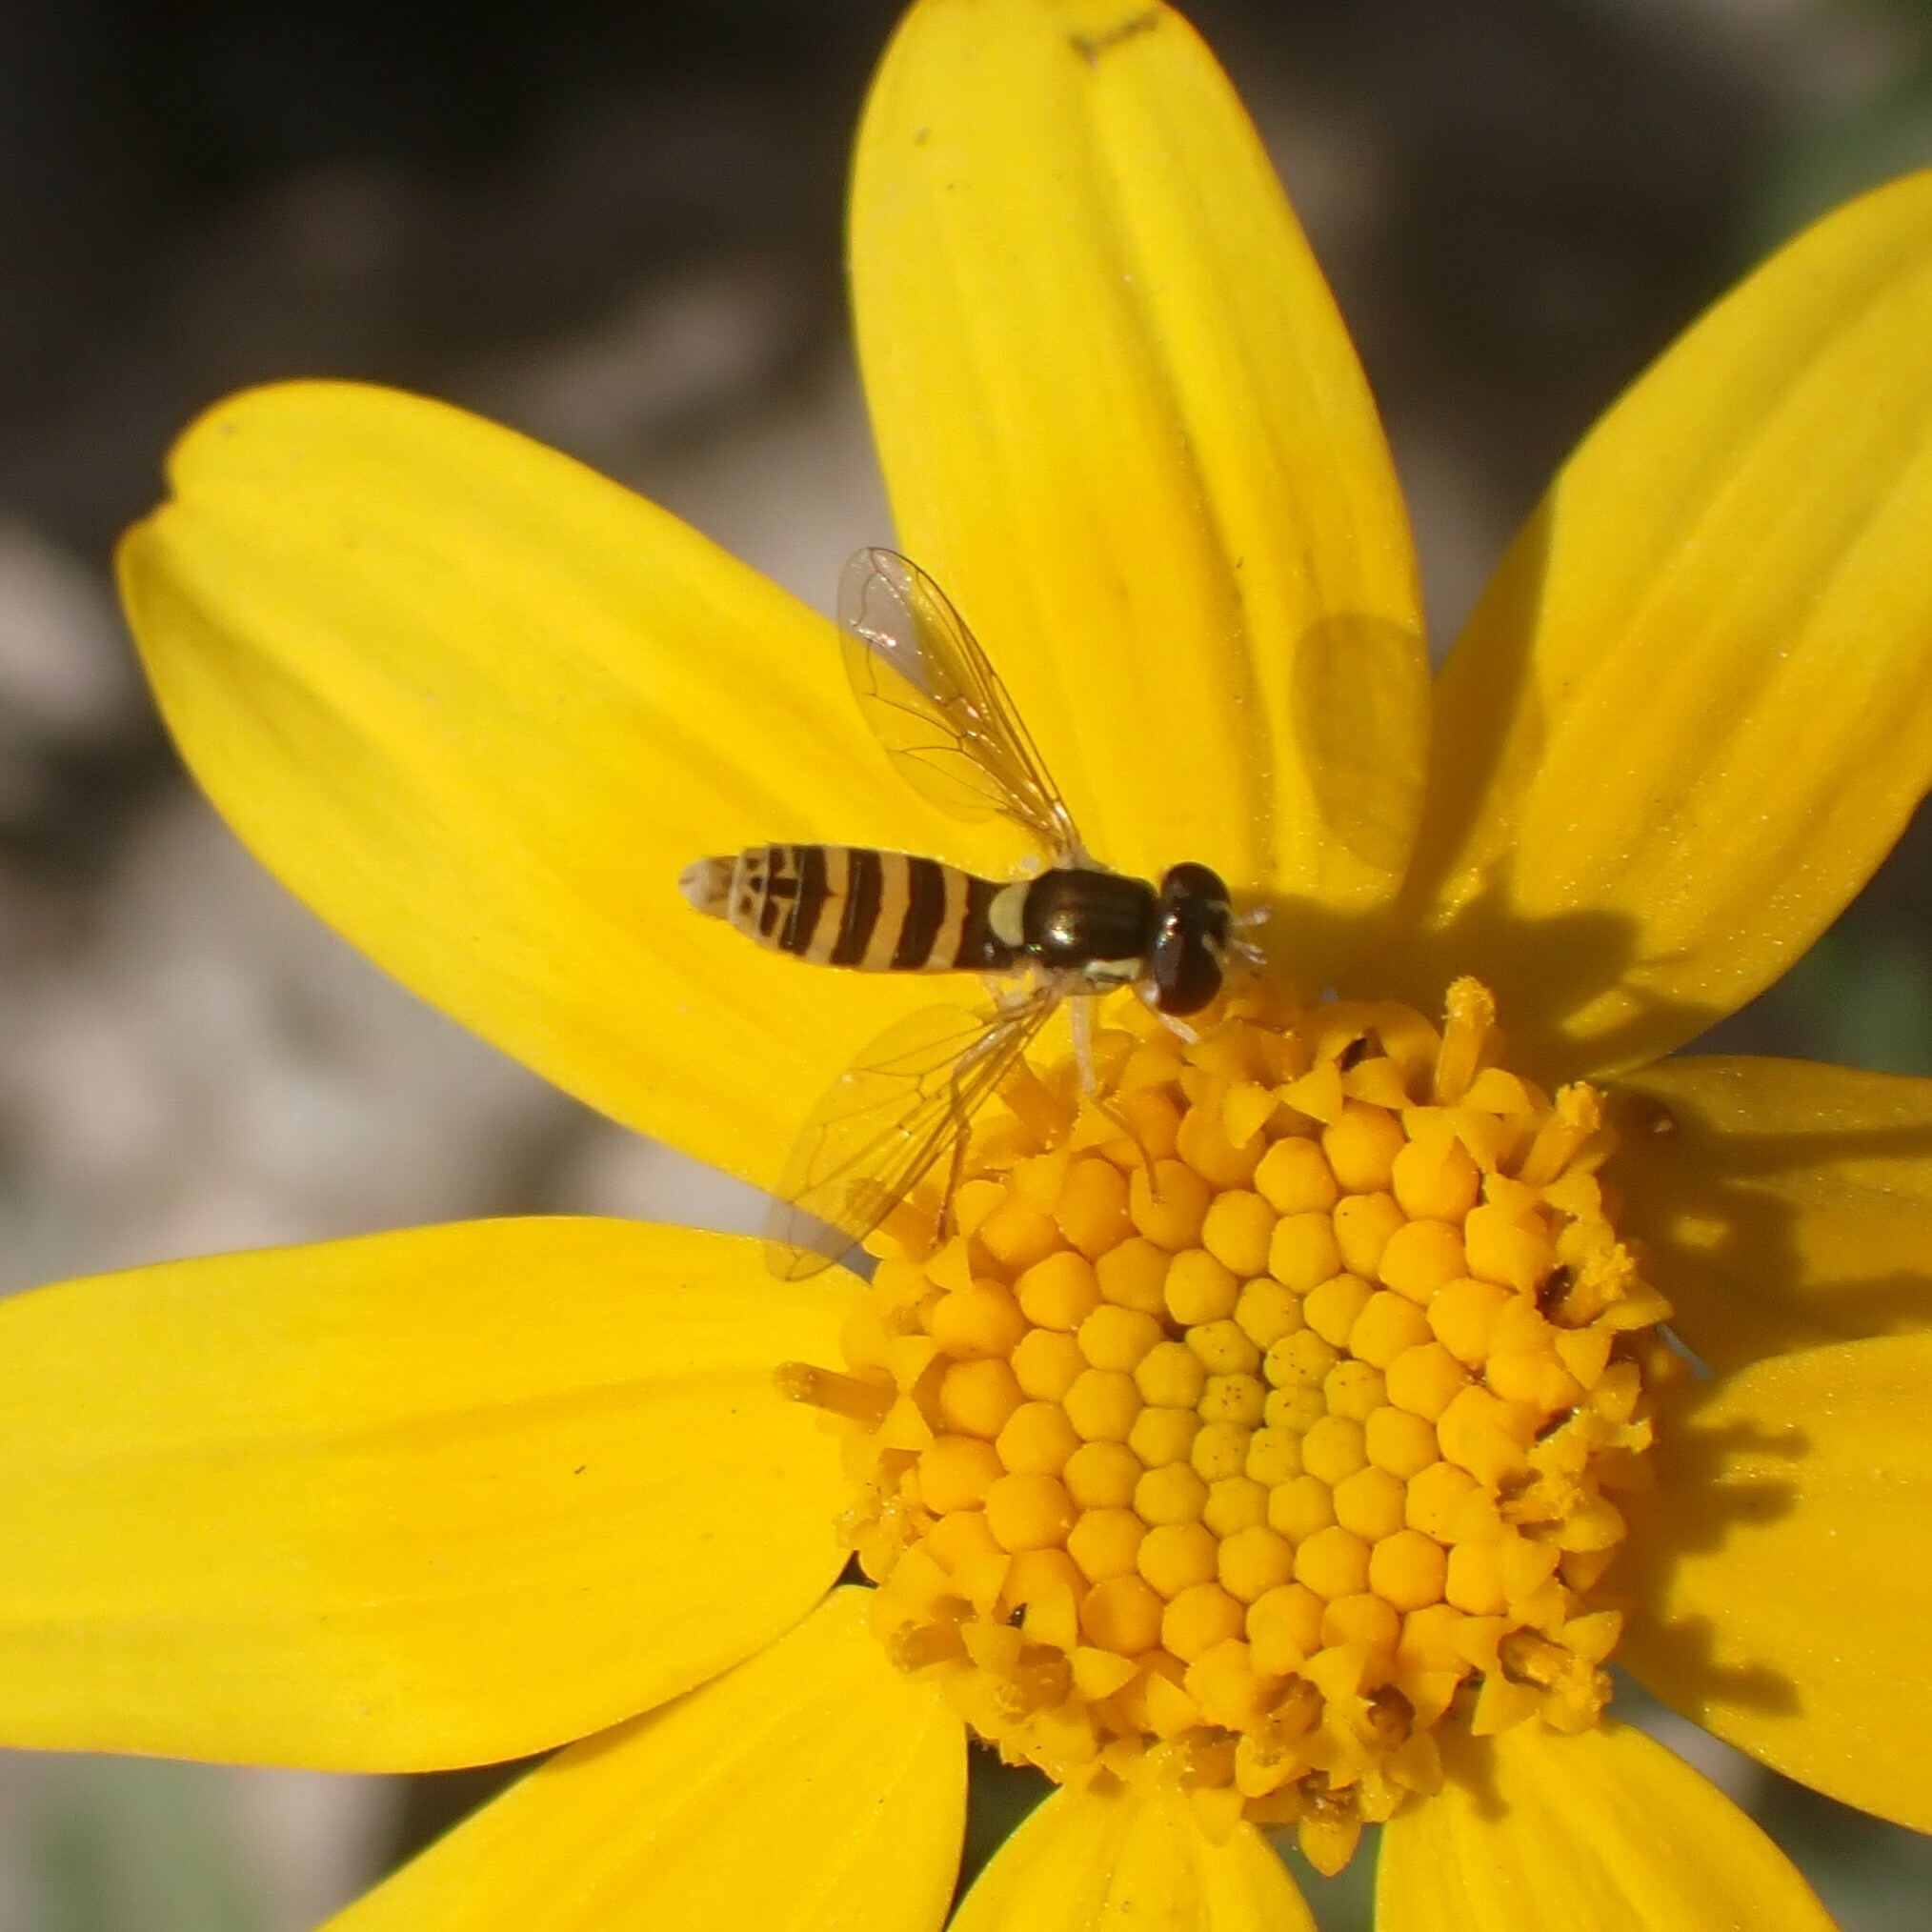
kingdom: Animalia
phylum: Arthropoda
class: Insecta
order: Diptera
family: Syrphidae
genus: Sphaerophoria
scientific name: Sphaerophoria sulphuripes
